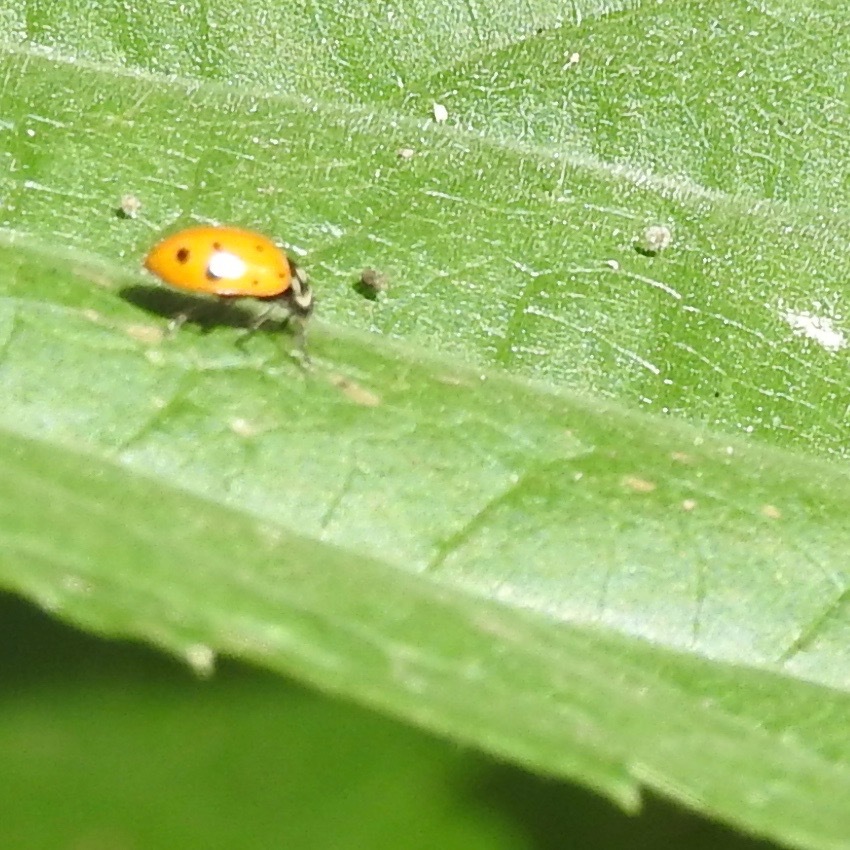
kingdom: Animalia
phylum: Arthropoda
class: Insecta
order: Coleoptera
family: Coccinellidae
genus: Hippodamia
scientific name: Hippodamia convergens
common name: Convergent lady beetle
